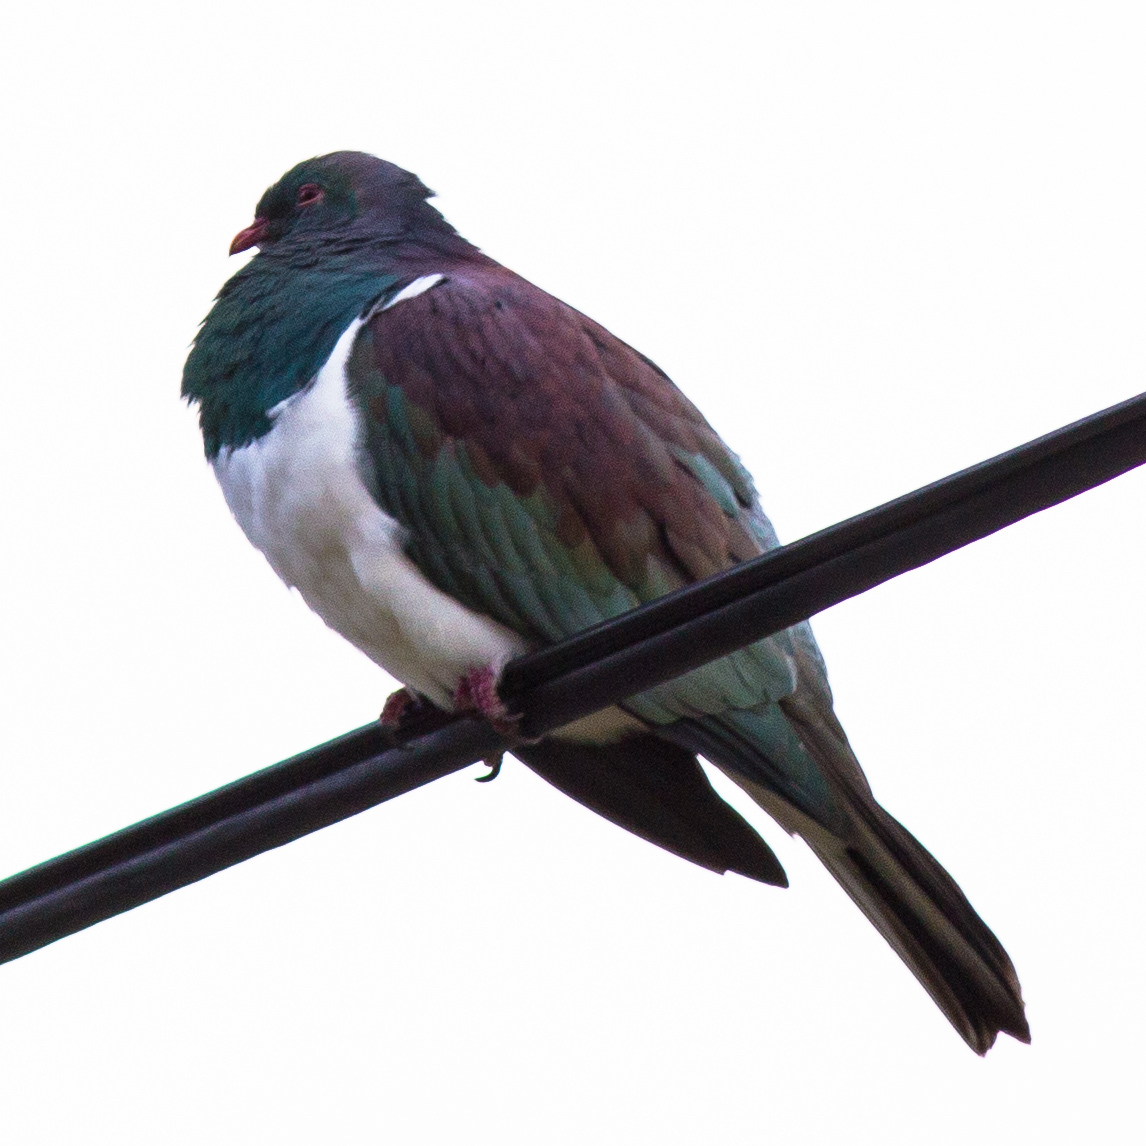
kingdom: Animalia
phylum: Chordata
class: Aves
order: Columbiformes
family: Columbidae
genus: Hemiphaga
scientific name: Hemiphaga novaeseelandiae
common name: New zealand pigeon
